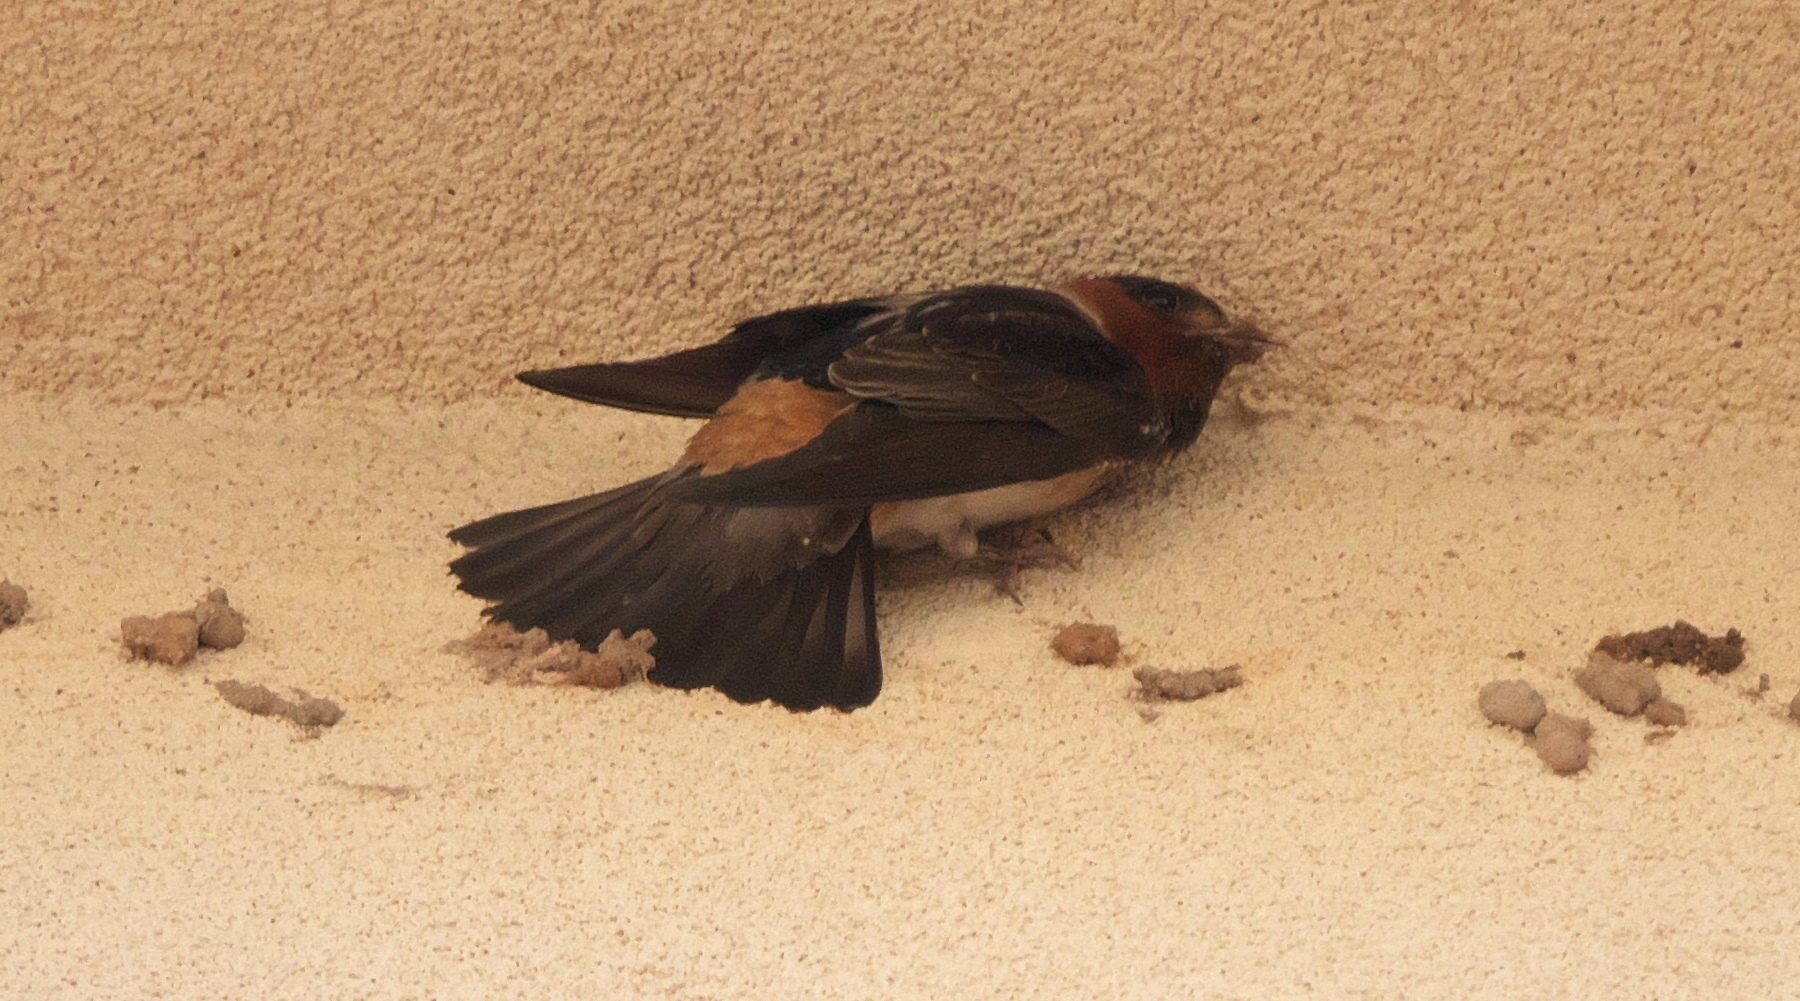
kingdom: Animalia
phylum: Chordata
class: Aves
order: Passeriformes
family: Hirundinidae
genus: Petrochelidon
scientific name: Petrochelidon pyrrhonota
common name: American cliff swallow
